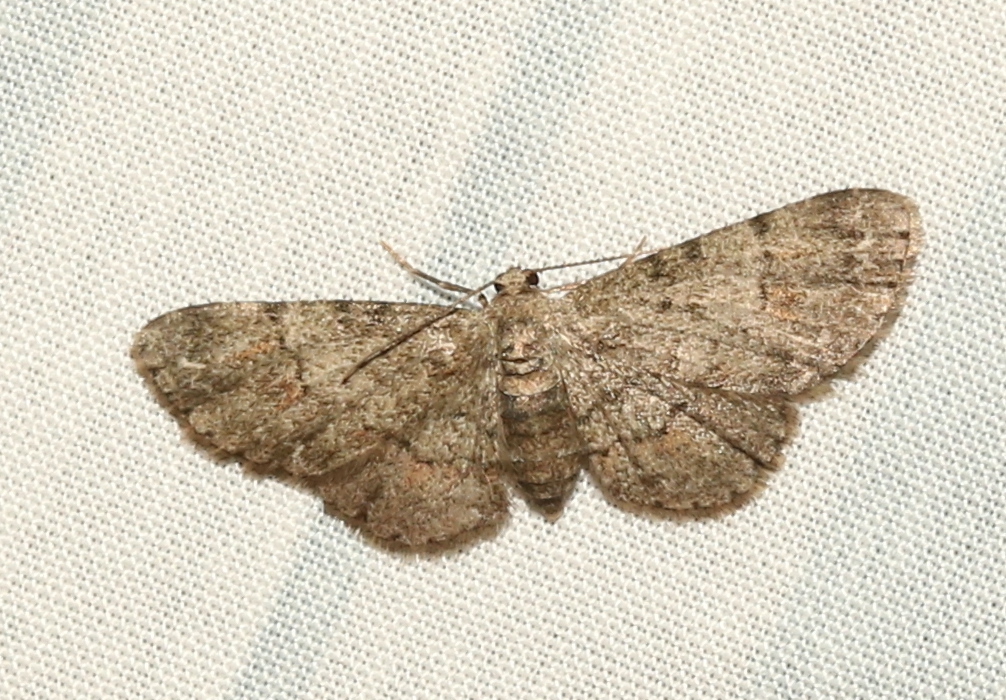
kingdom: Animalia
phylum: Arthropoda
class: Insecta
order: Lepidoptera
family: Geometridae
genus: Glenoides
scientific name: Glenoides texanaria
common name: Texas gray
